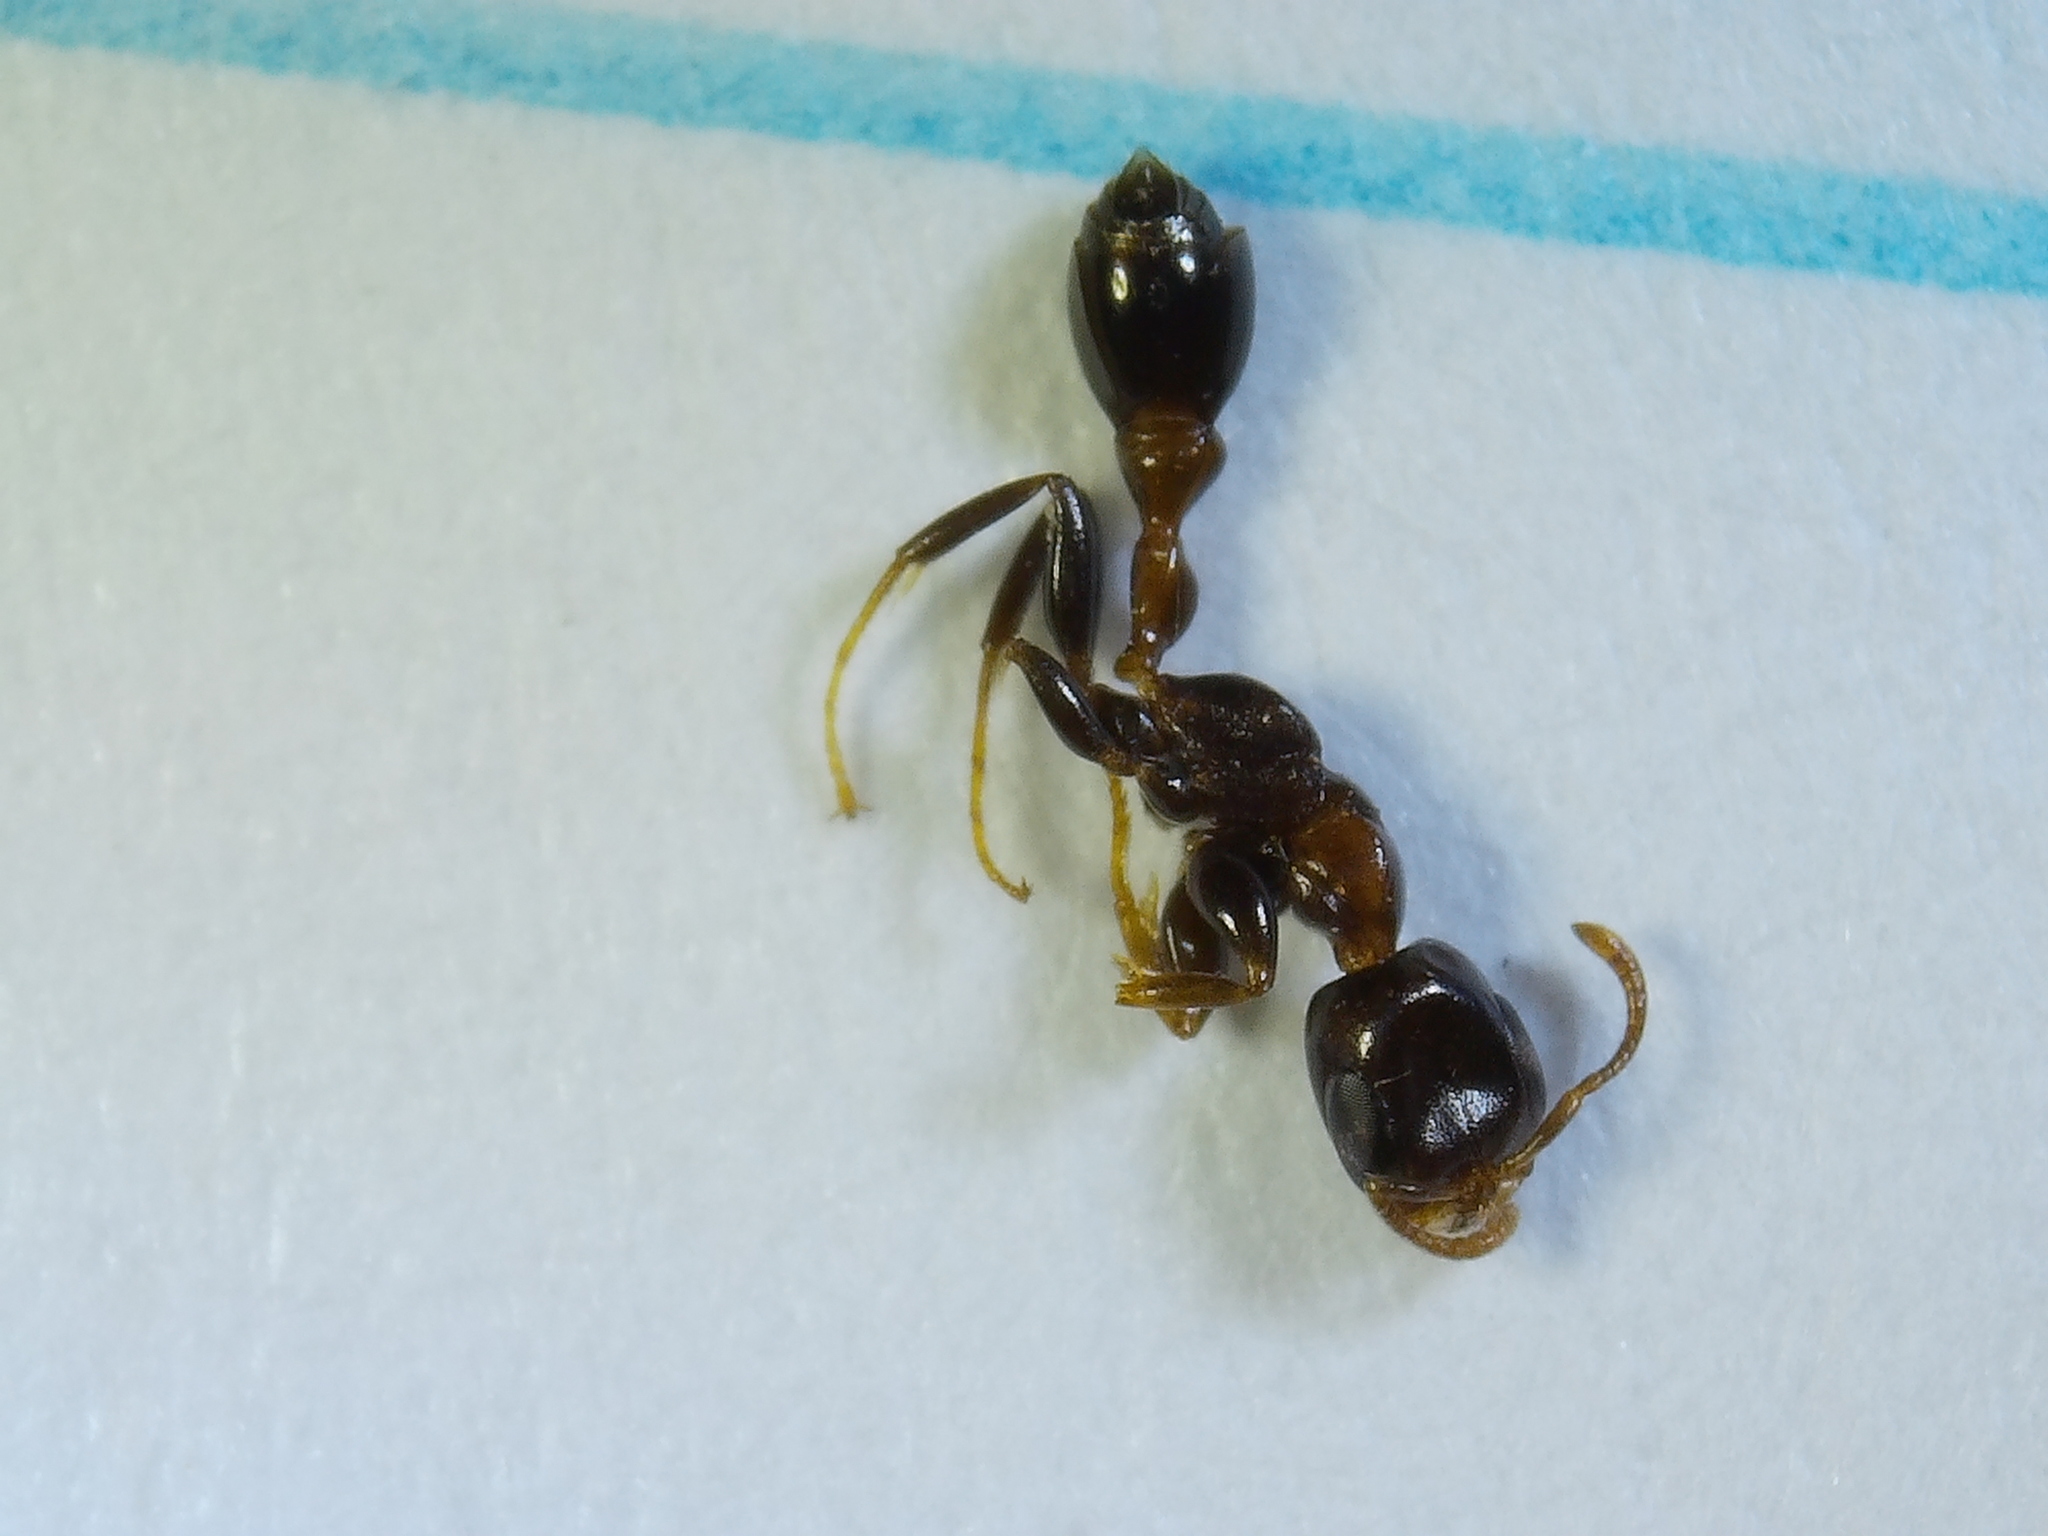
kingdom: Animalia
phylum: Arthropoda
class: Insecta
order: Hymenoptera
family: Formicidae
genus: Pseudomyrmex
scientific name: Pseudomyrmex ejectus
